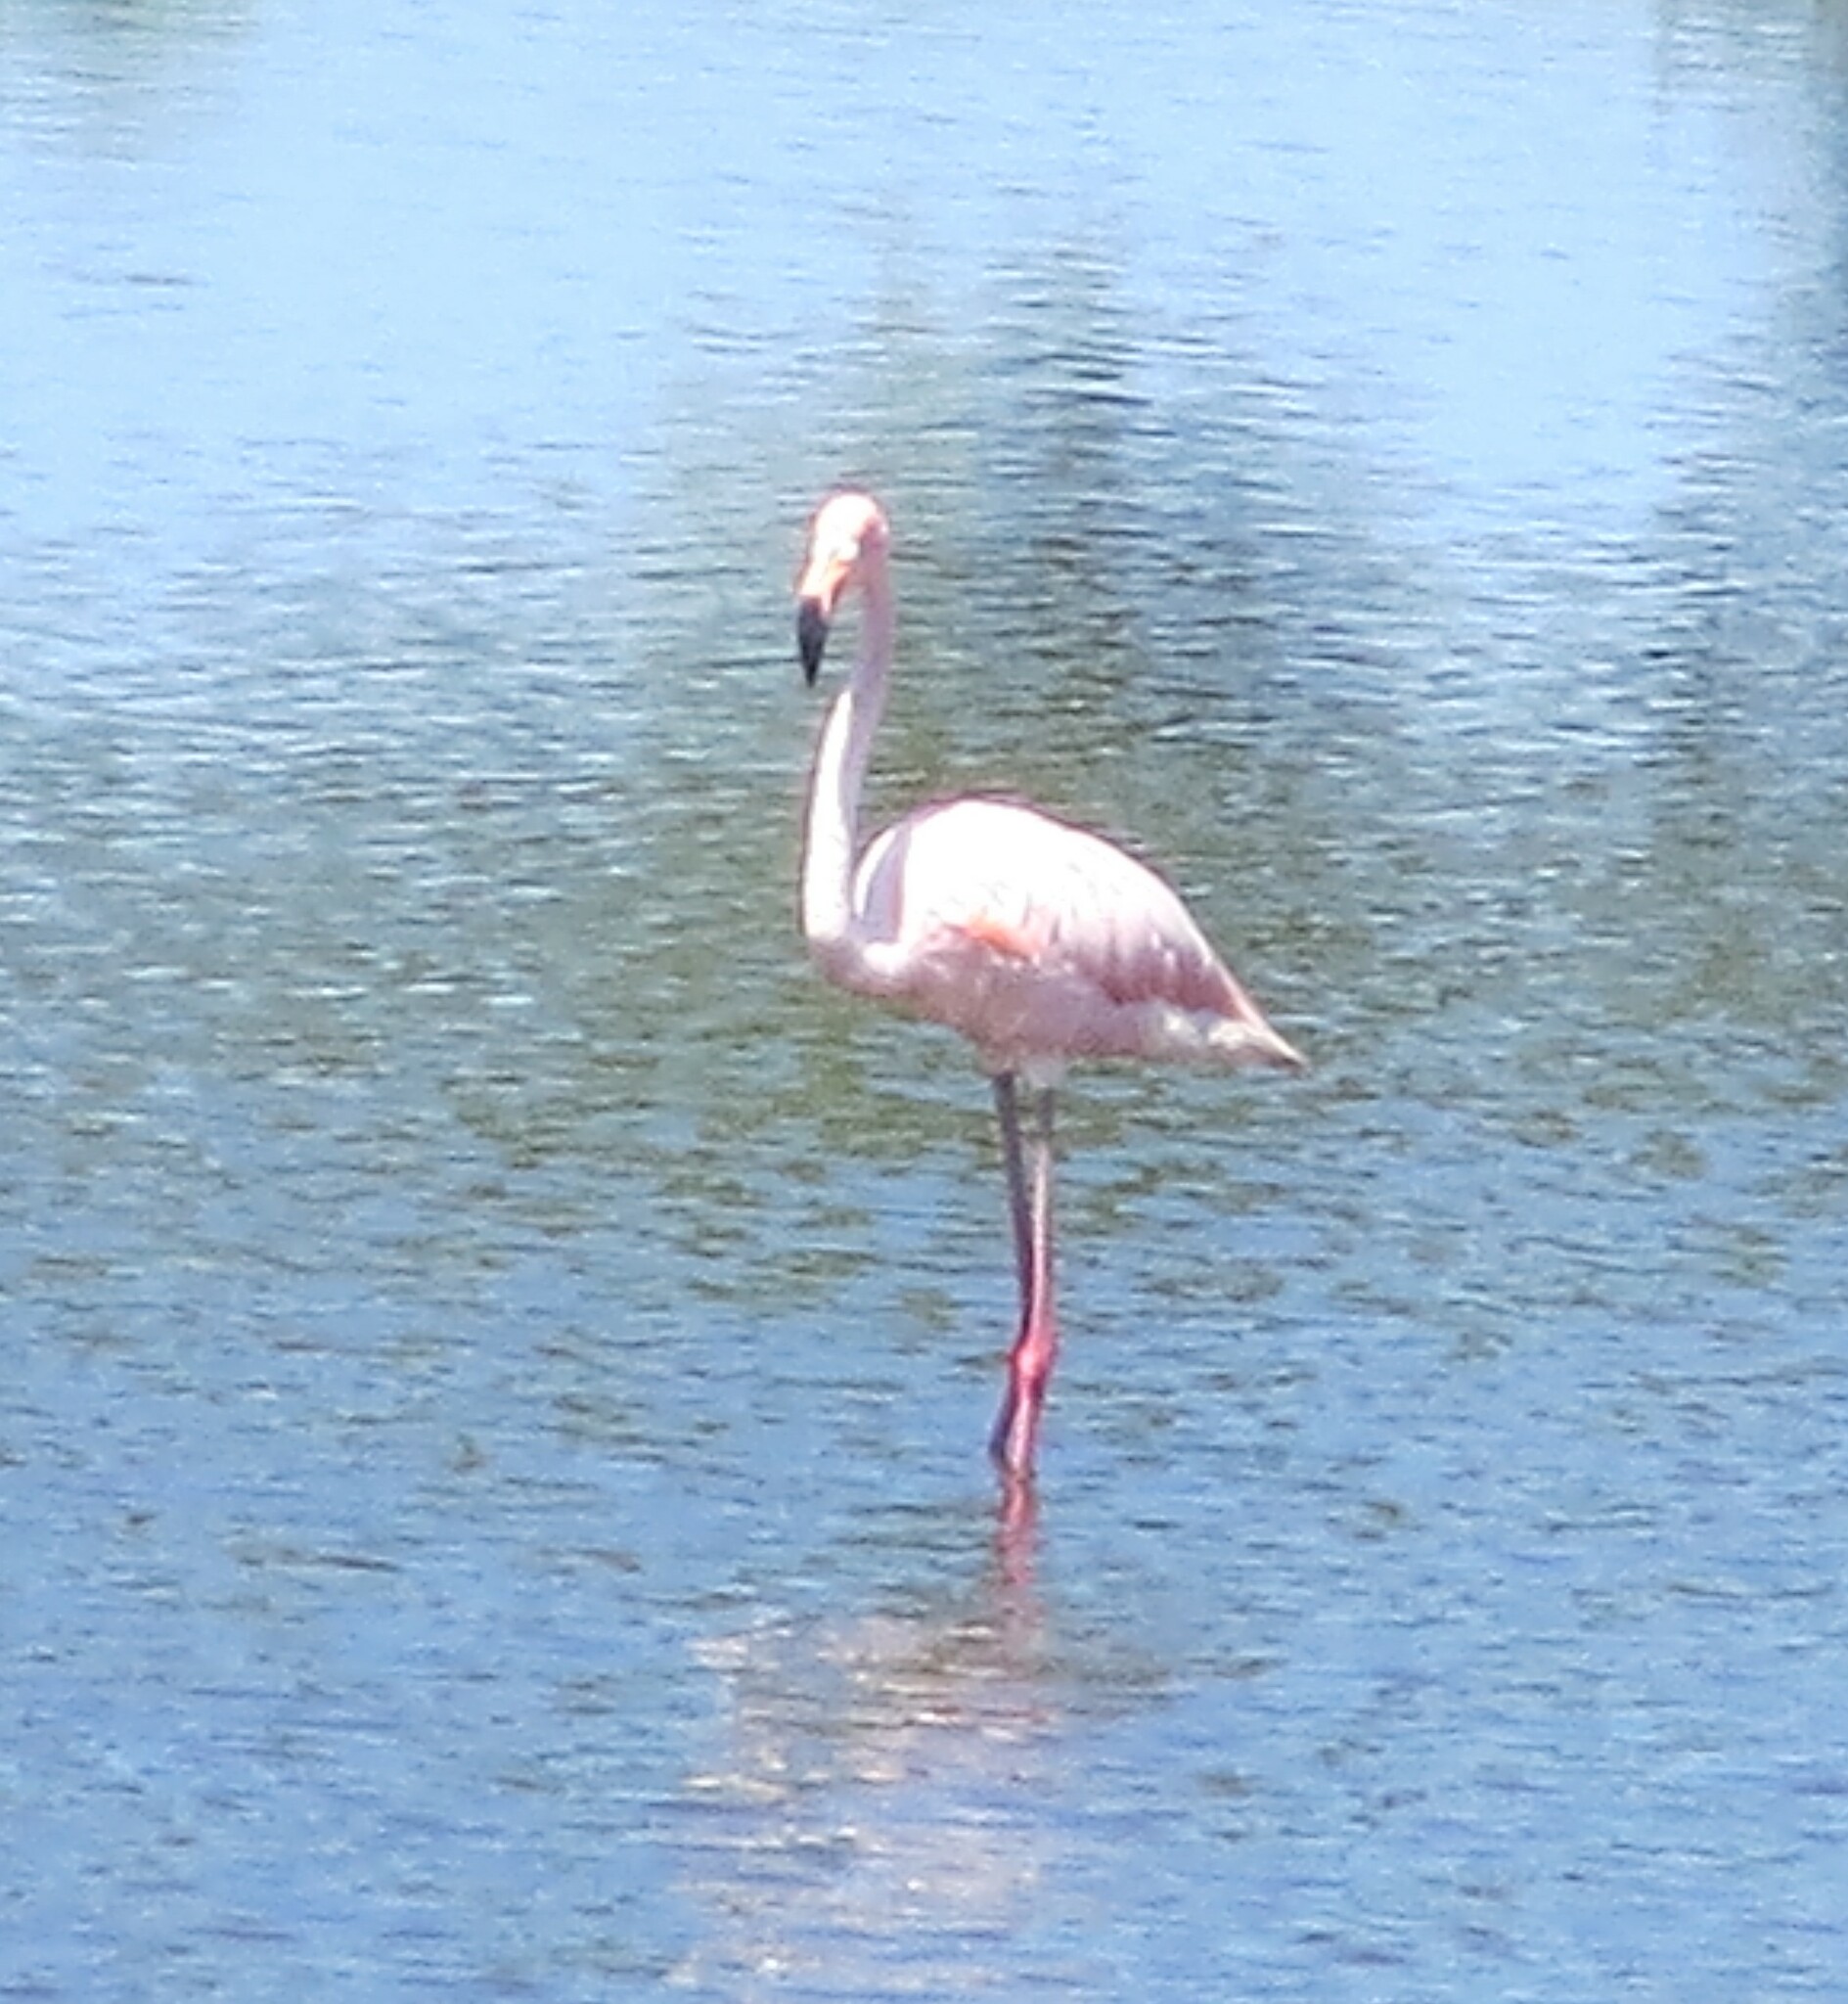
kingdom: Animalia
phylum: Chordata
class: Aves
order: Phoenicopteriformes
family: Phoenicopteridae
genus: Phoenicopterus
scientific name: Phoenicopterus ruber
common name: American flamingo
